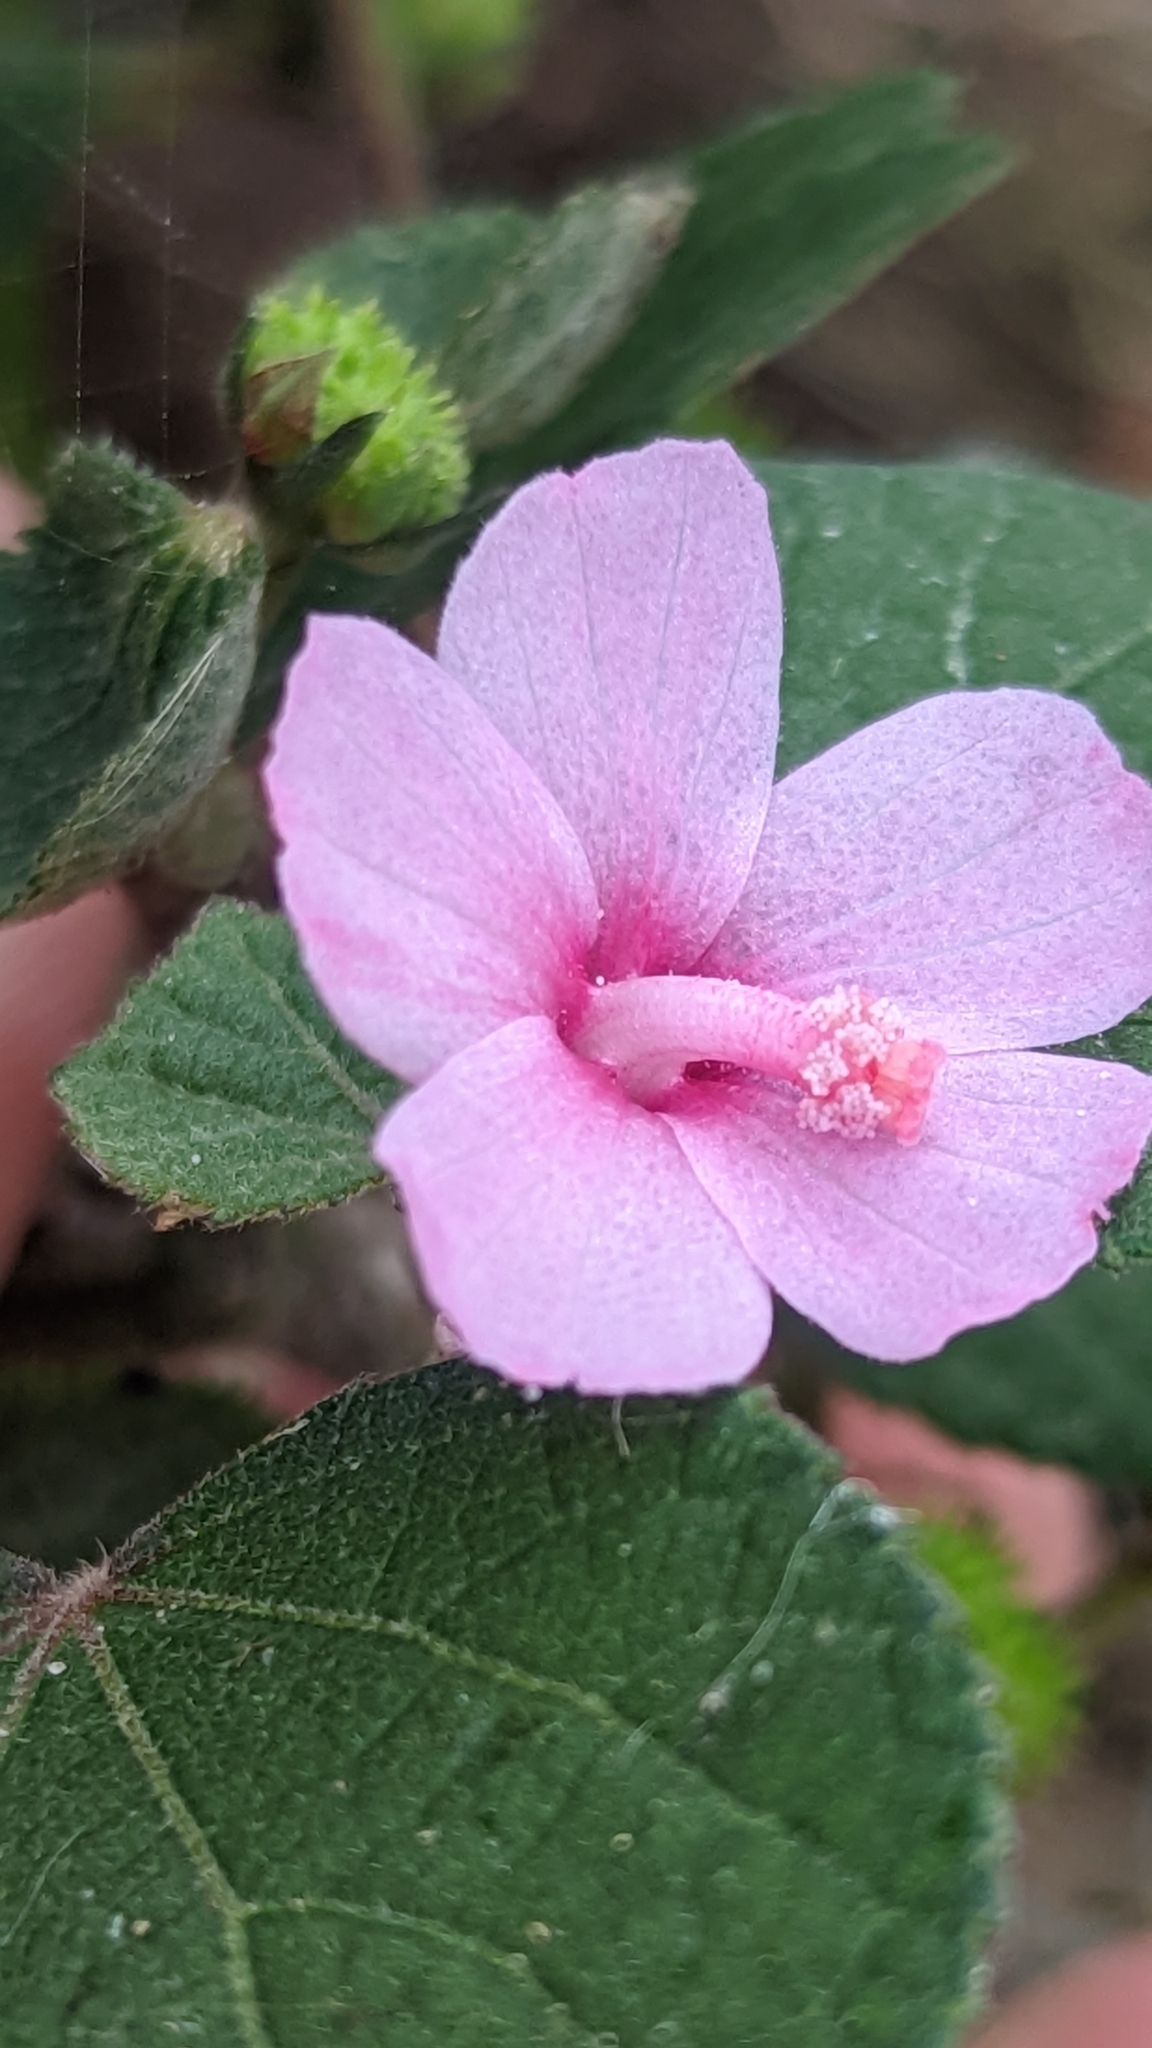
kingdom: Plantae
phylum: Tracheophyta
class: Magnoliopsida
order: Malvales
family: Malvaceae
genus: Urena
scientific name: Urena lobata
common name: Caesarweed
